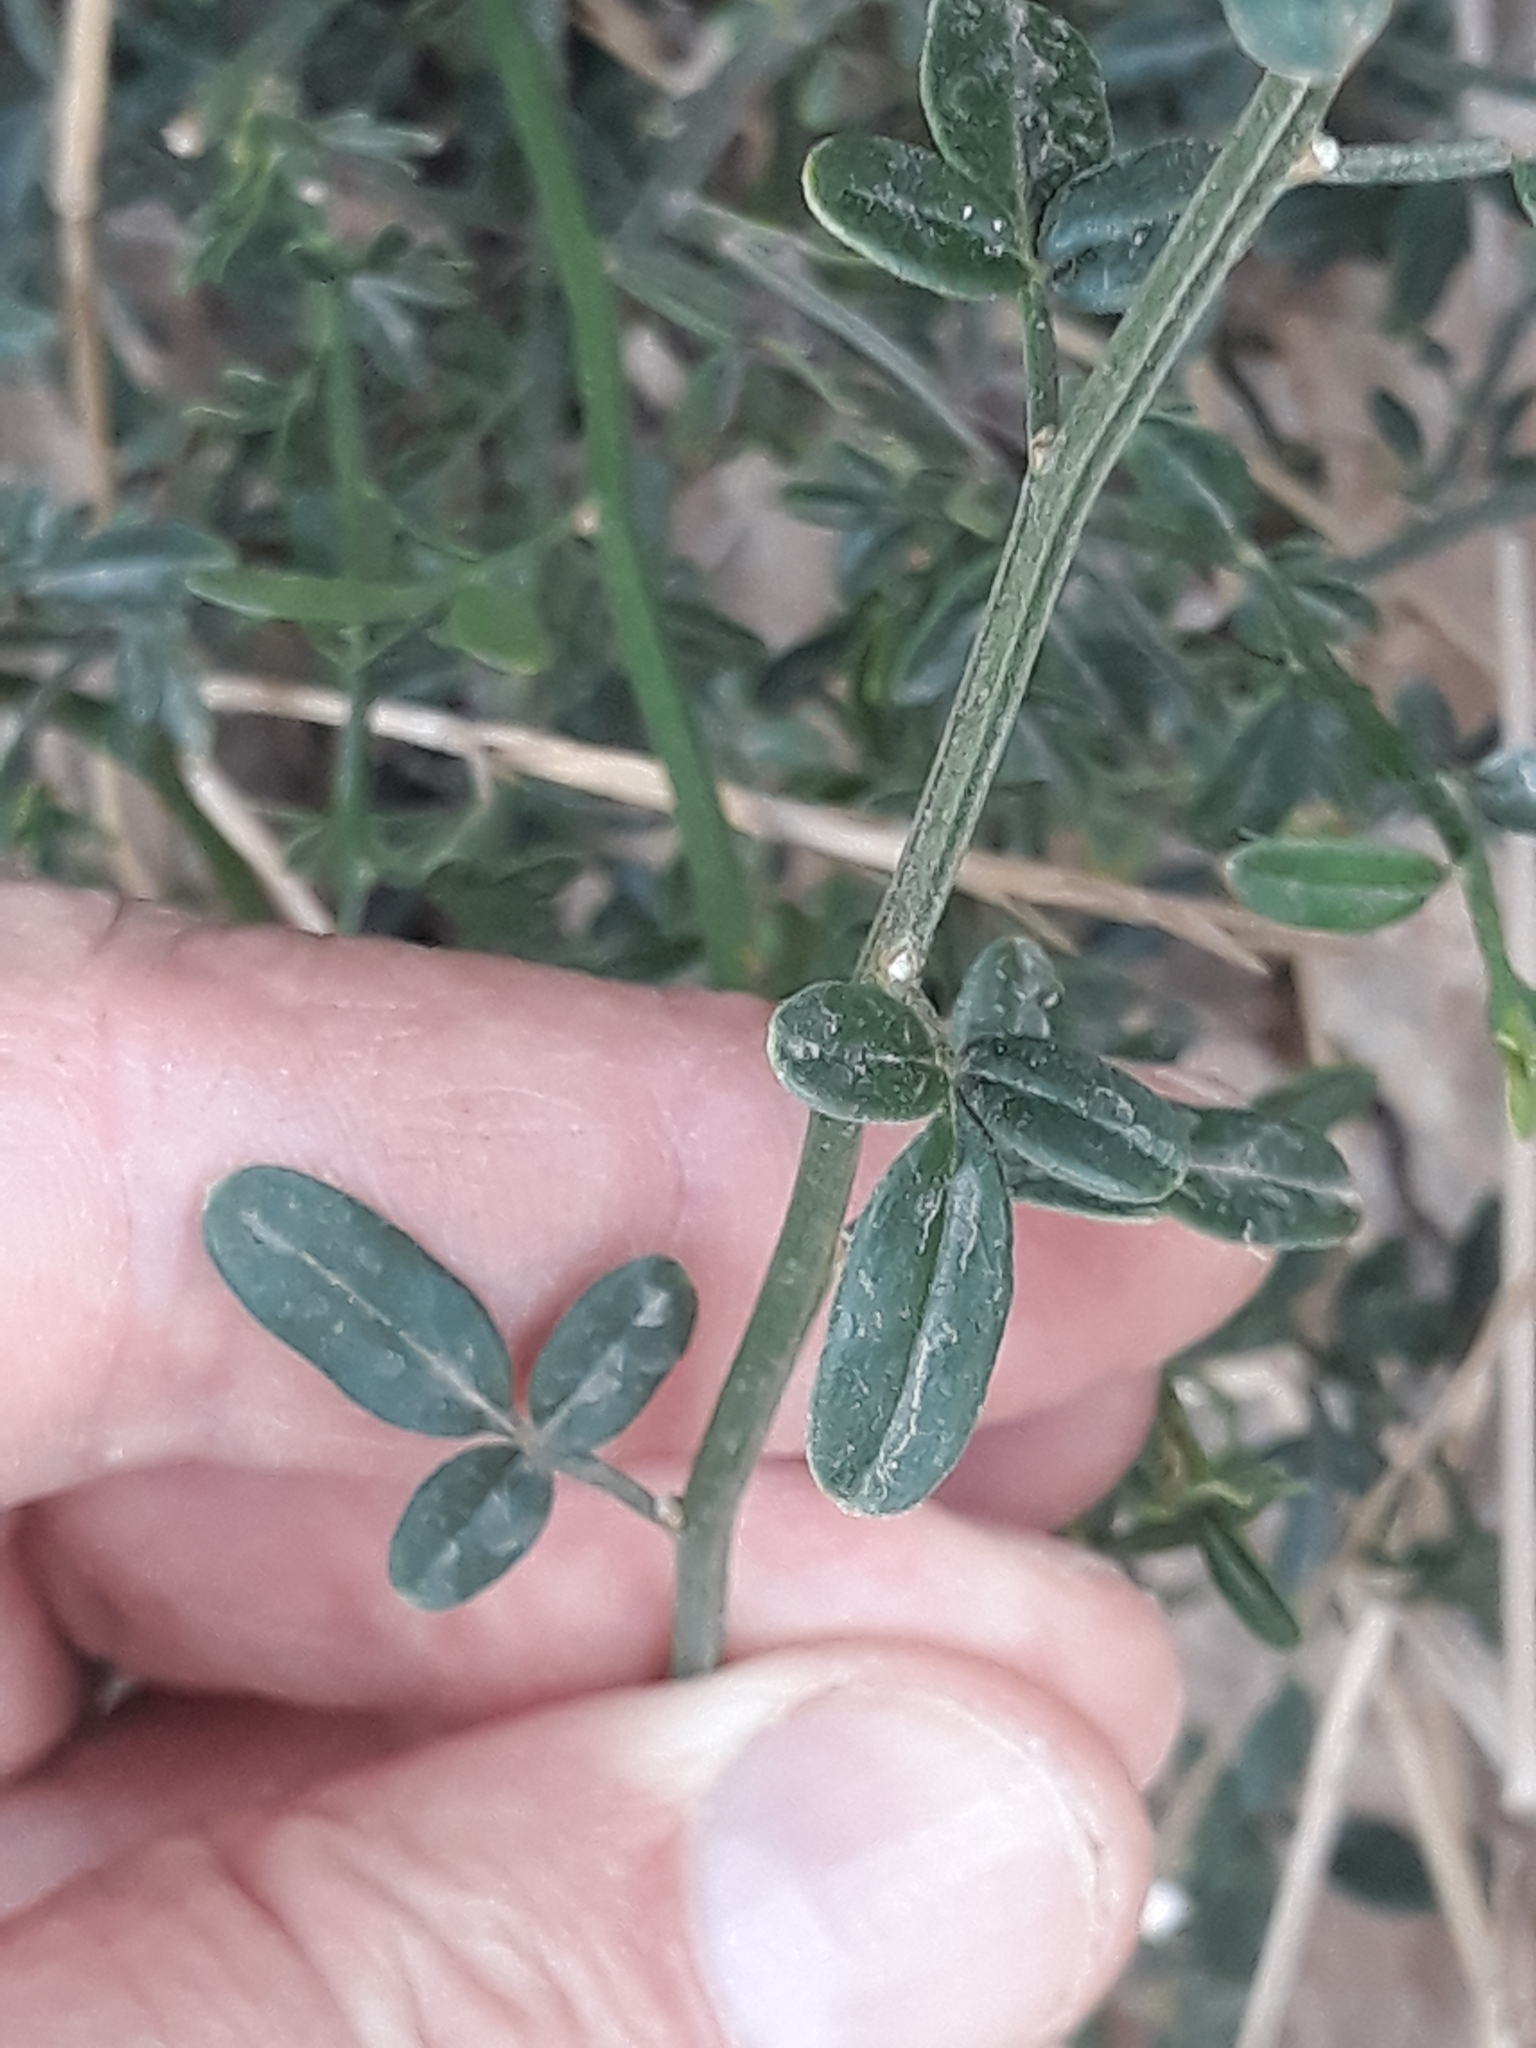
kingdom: Plantae
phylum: Tracheophyta
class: Magnoliopsida
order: Lamiales
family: Oleaceae
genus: Chrysojasminum
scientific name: Chrysojasminum fruticans
